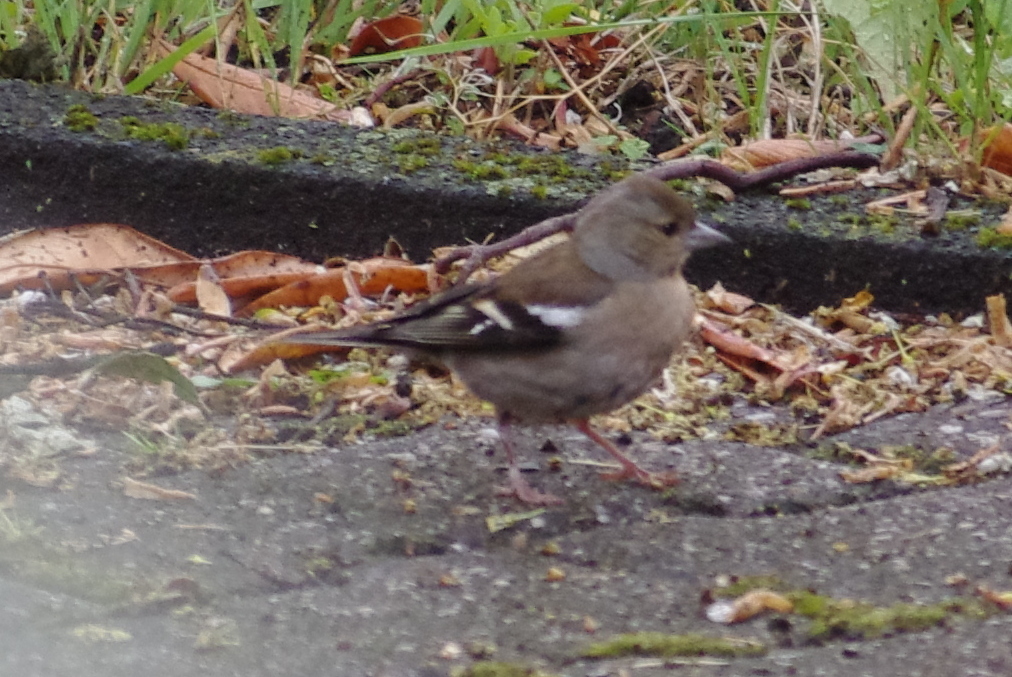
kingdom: Animalia
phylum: Chordata
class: Aves
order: Passeriformes
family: Fringillidae
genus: Fringilla
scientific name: Fringilla coelebs
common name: Common chaffinch
